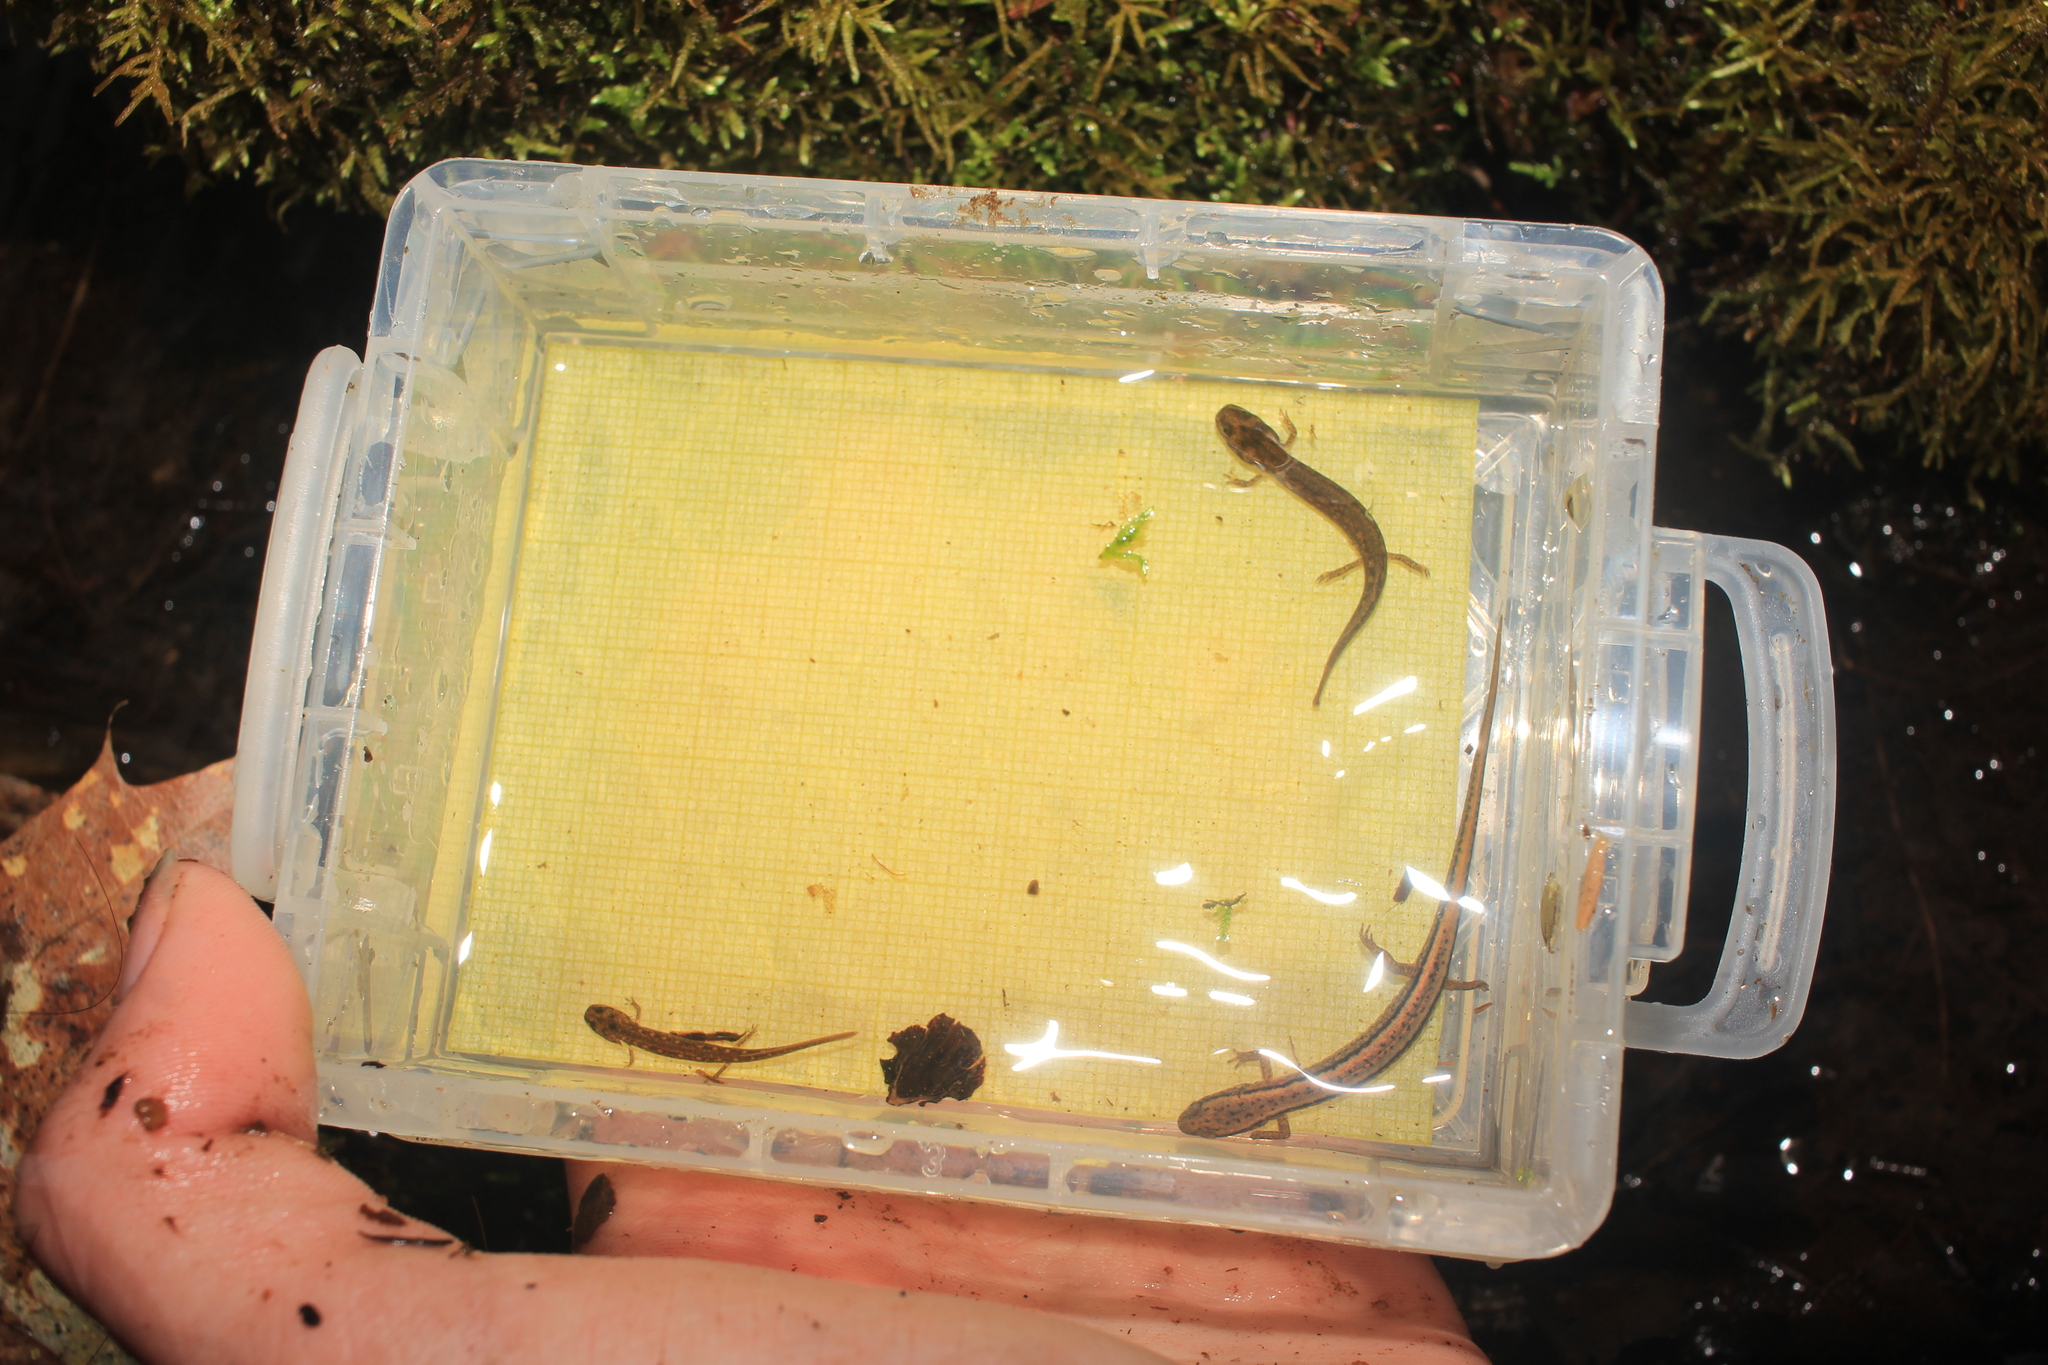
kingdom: Animalia
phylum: Chordata
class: Amphibia
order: Caudata
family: Plethodontidae
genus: Eurycea
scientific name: Eurycea bislineata
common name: Northern two-lined salamander
